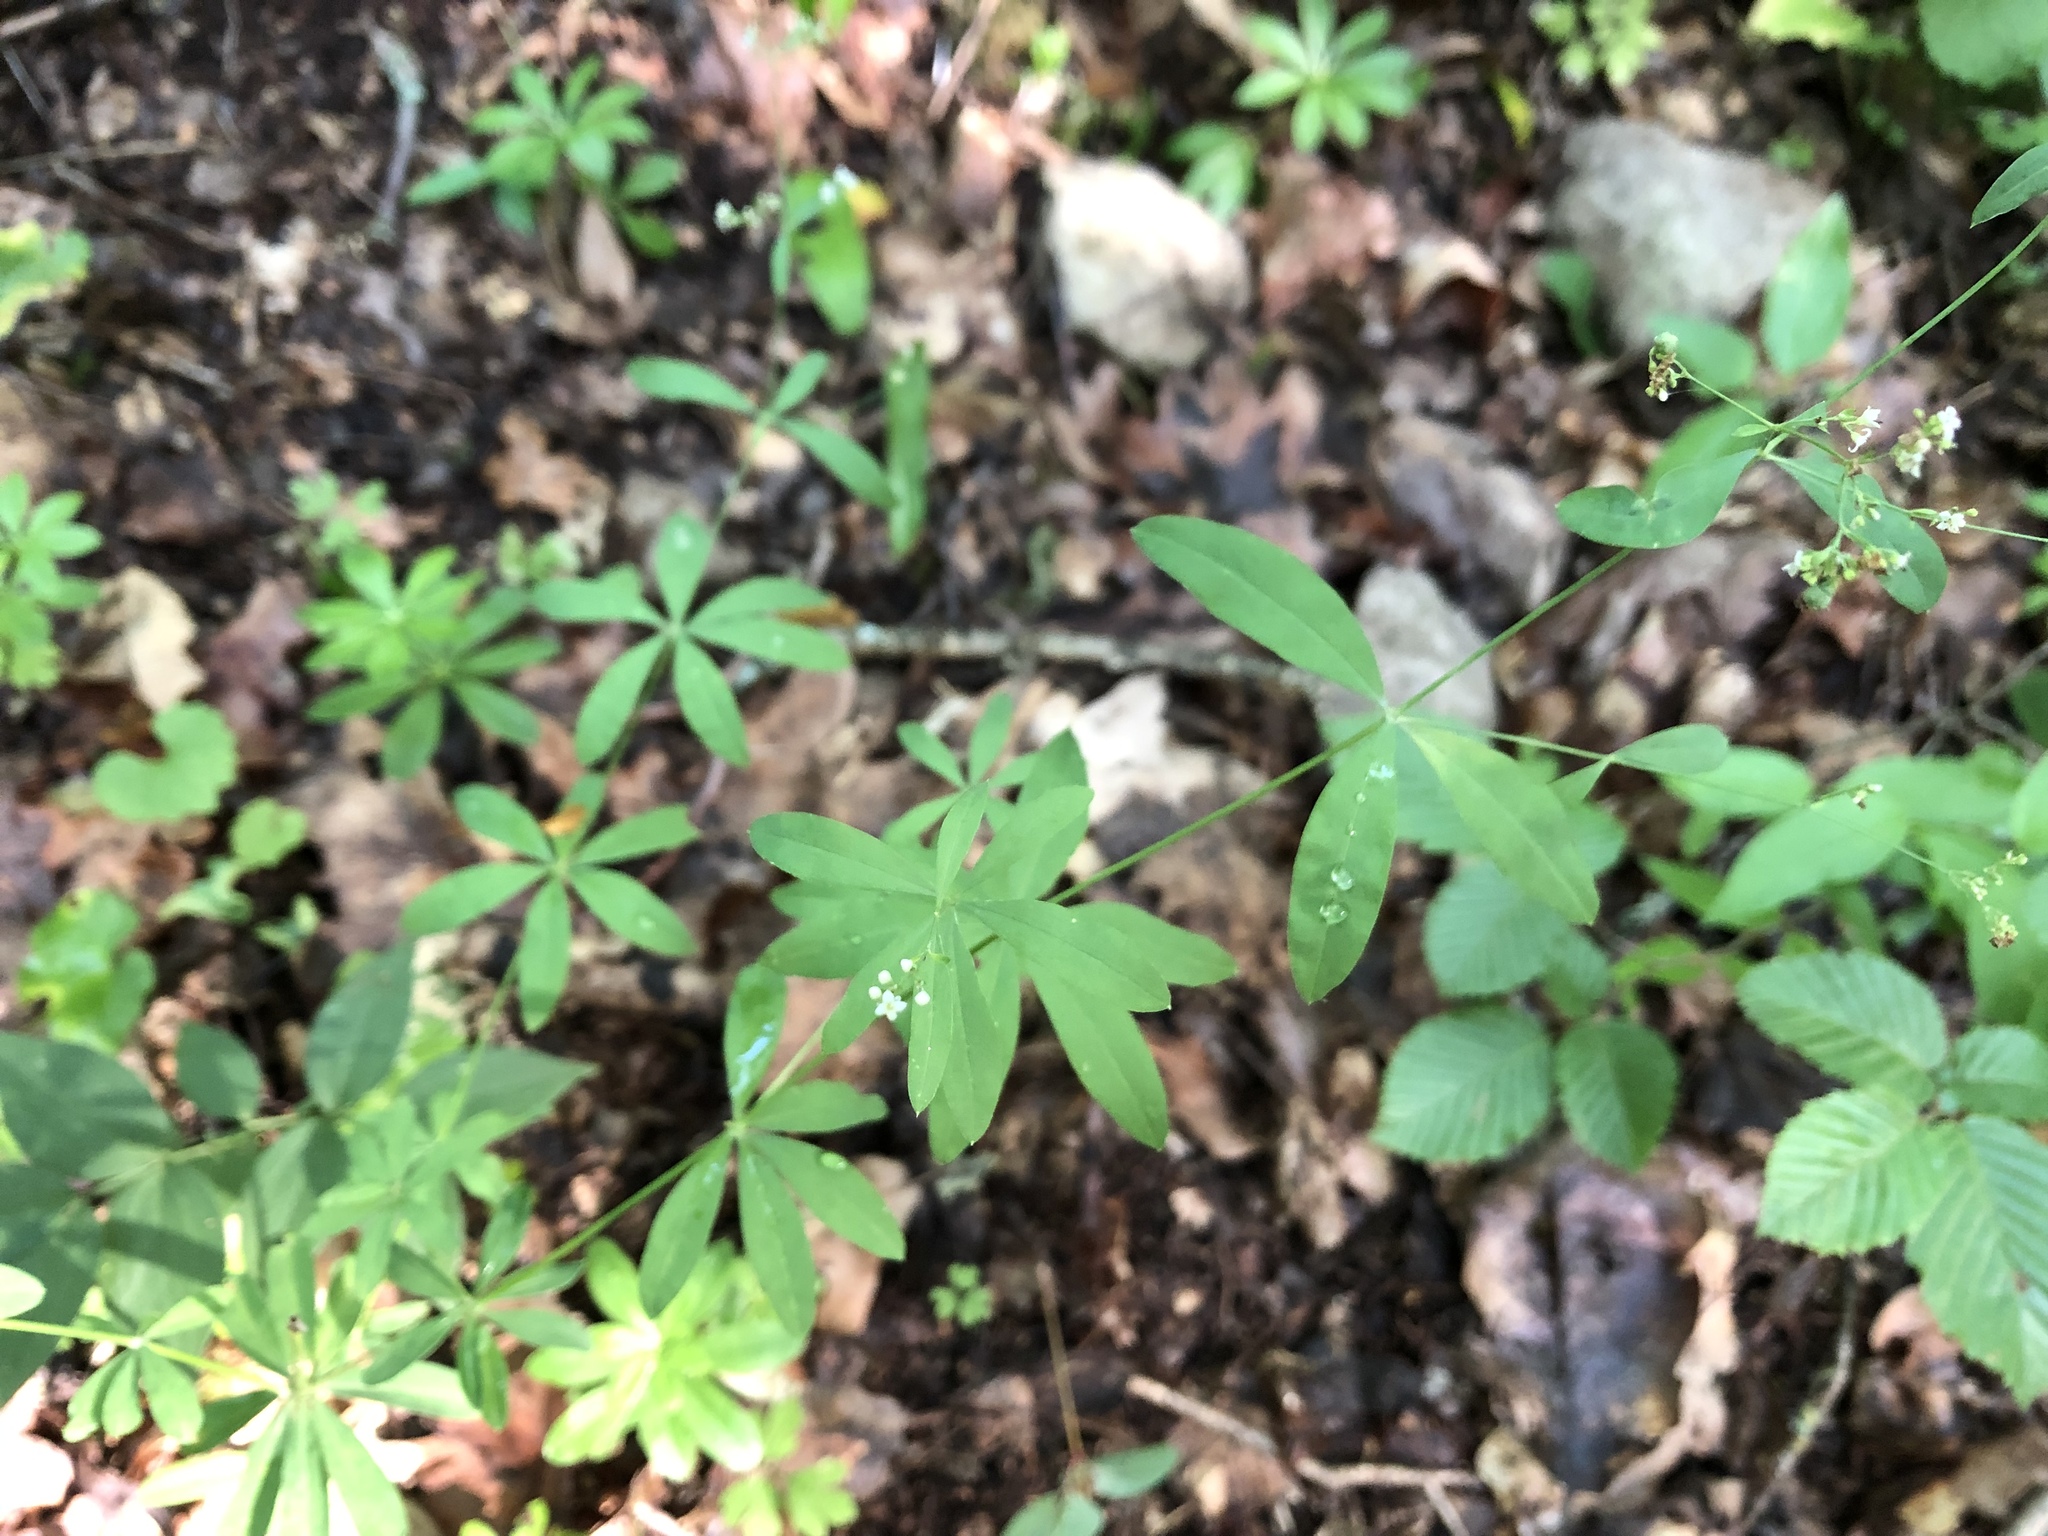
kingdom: Plantae
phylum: Tracheophyta
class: Magnoliopsida
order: Gentianales
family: Rubiaceae
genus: Galium
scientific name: Galium sylvaticum
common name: Wood bedstraw
